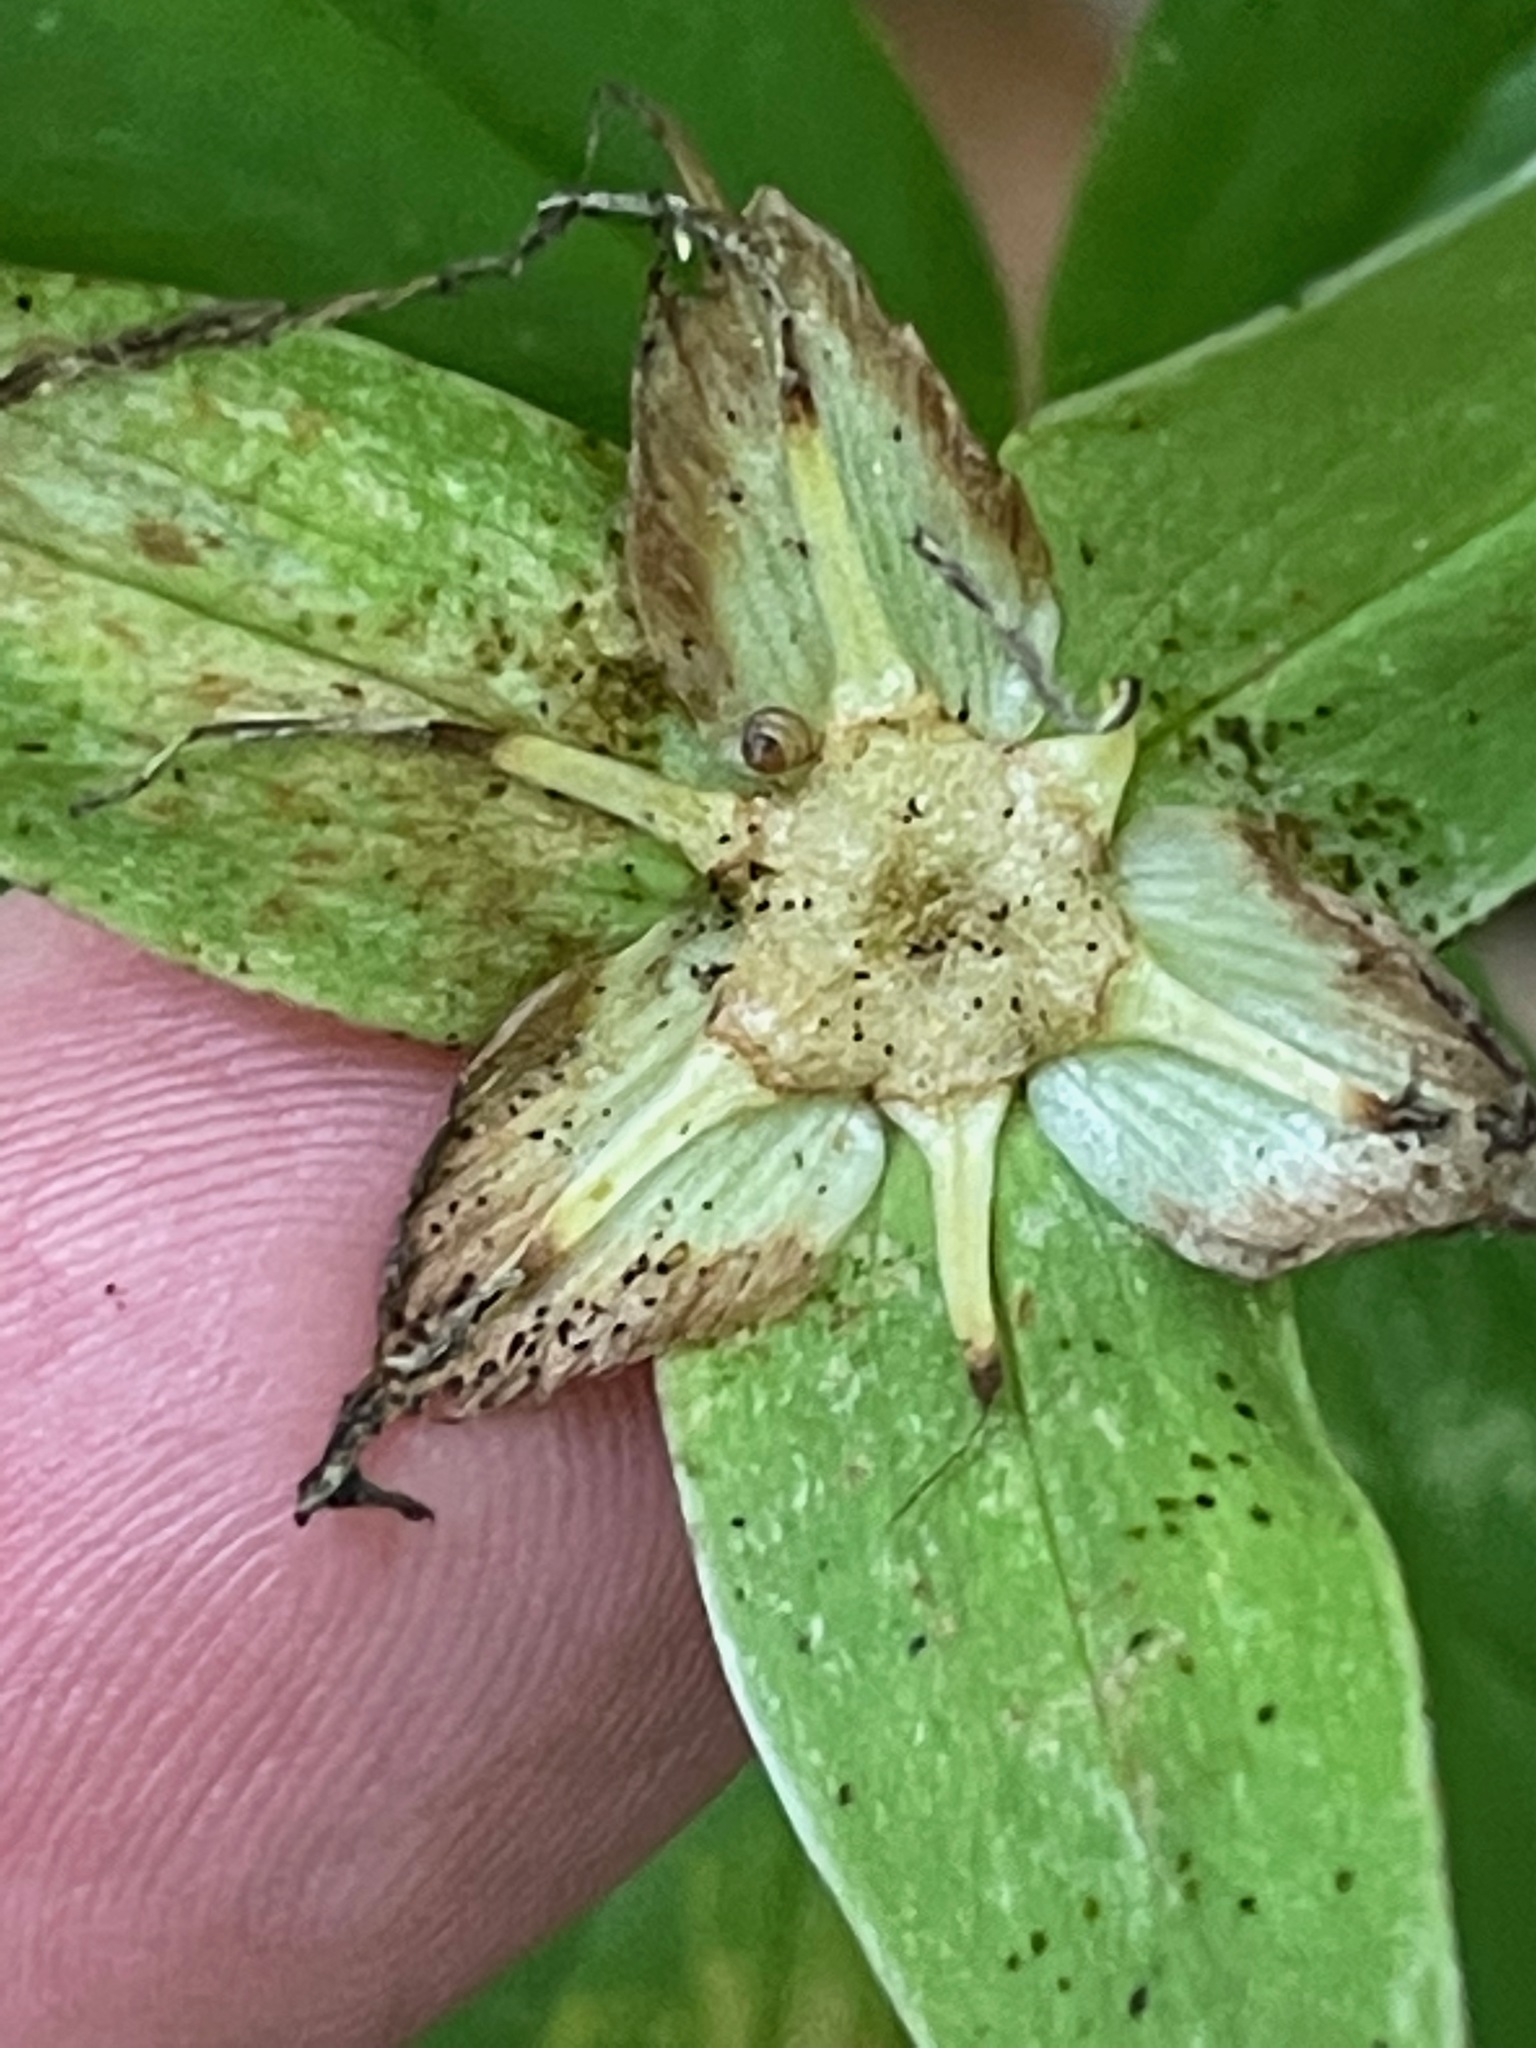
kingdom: Plantae
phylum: Tracheophyta
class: Liliopsida
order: Liliales
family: Melanthiaceae
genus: Trillium
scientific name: Trillium grandiflorum
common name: Great white trillium
